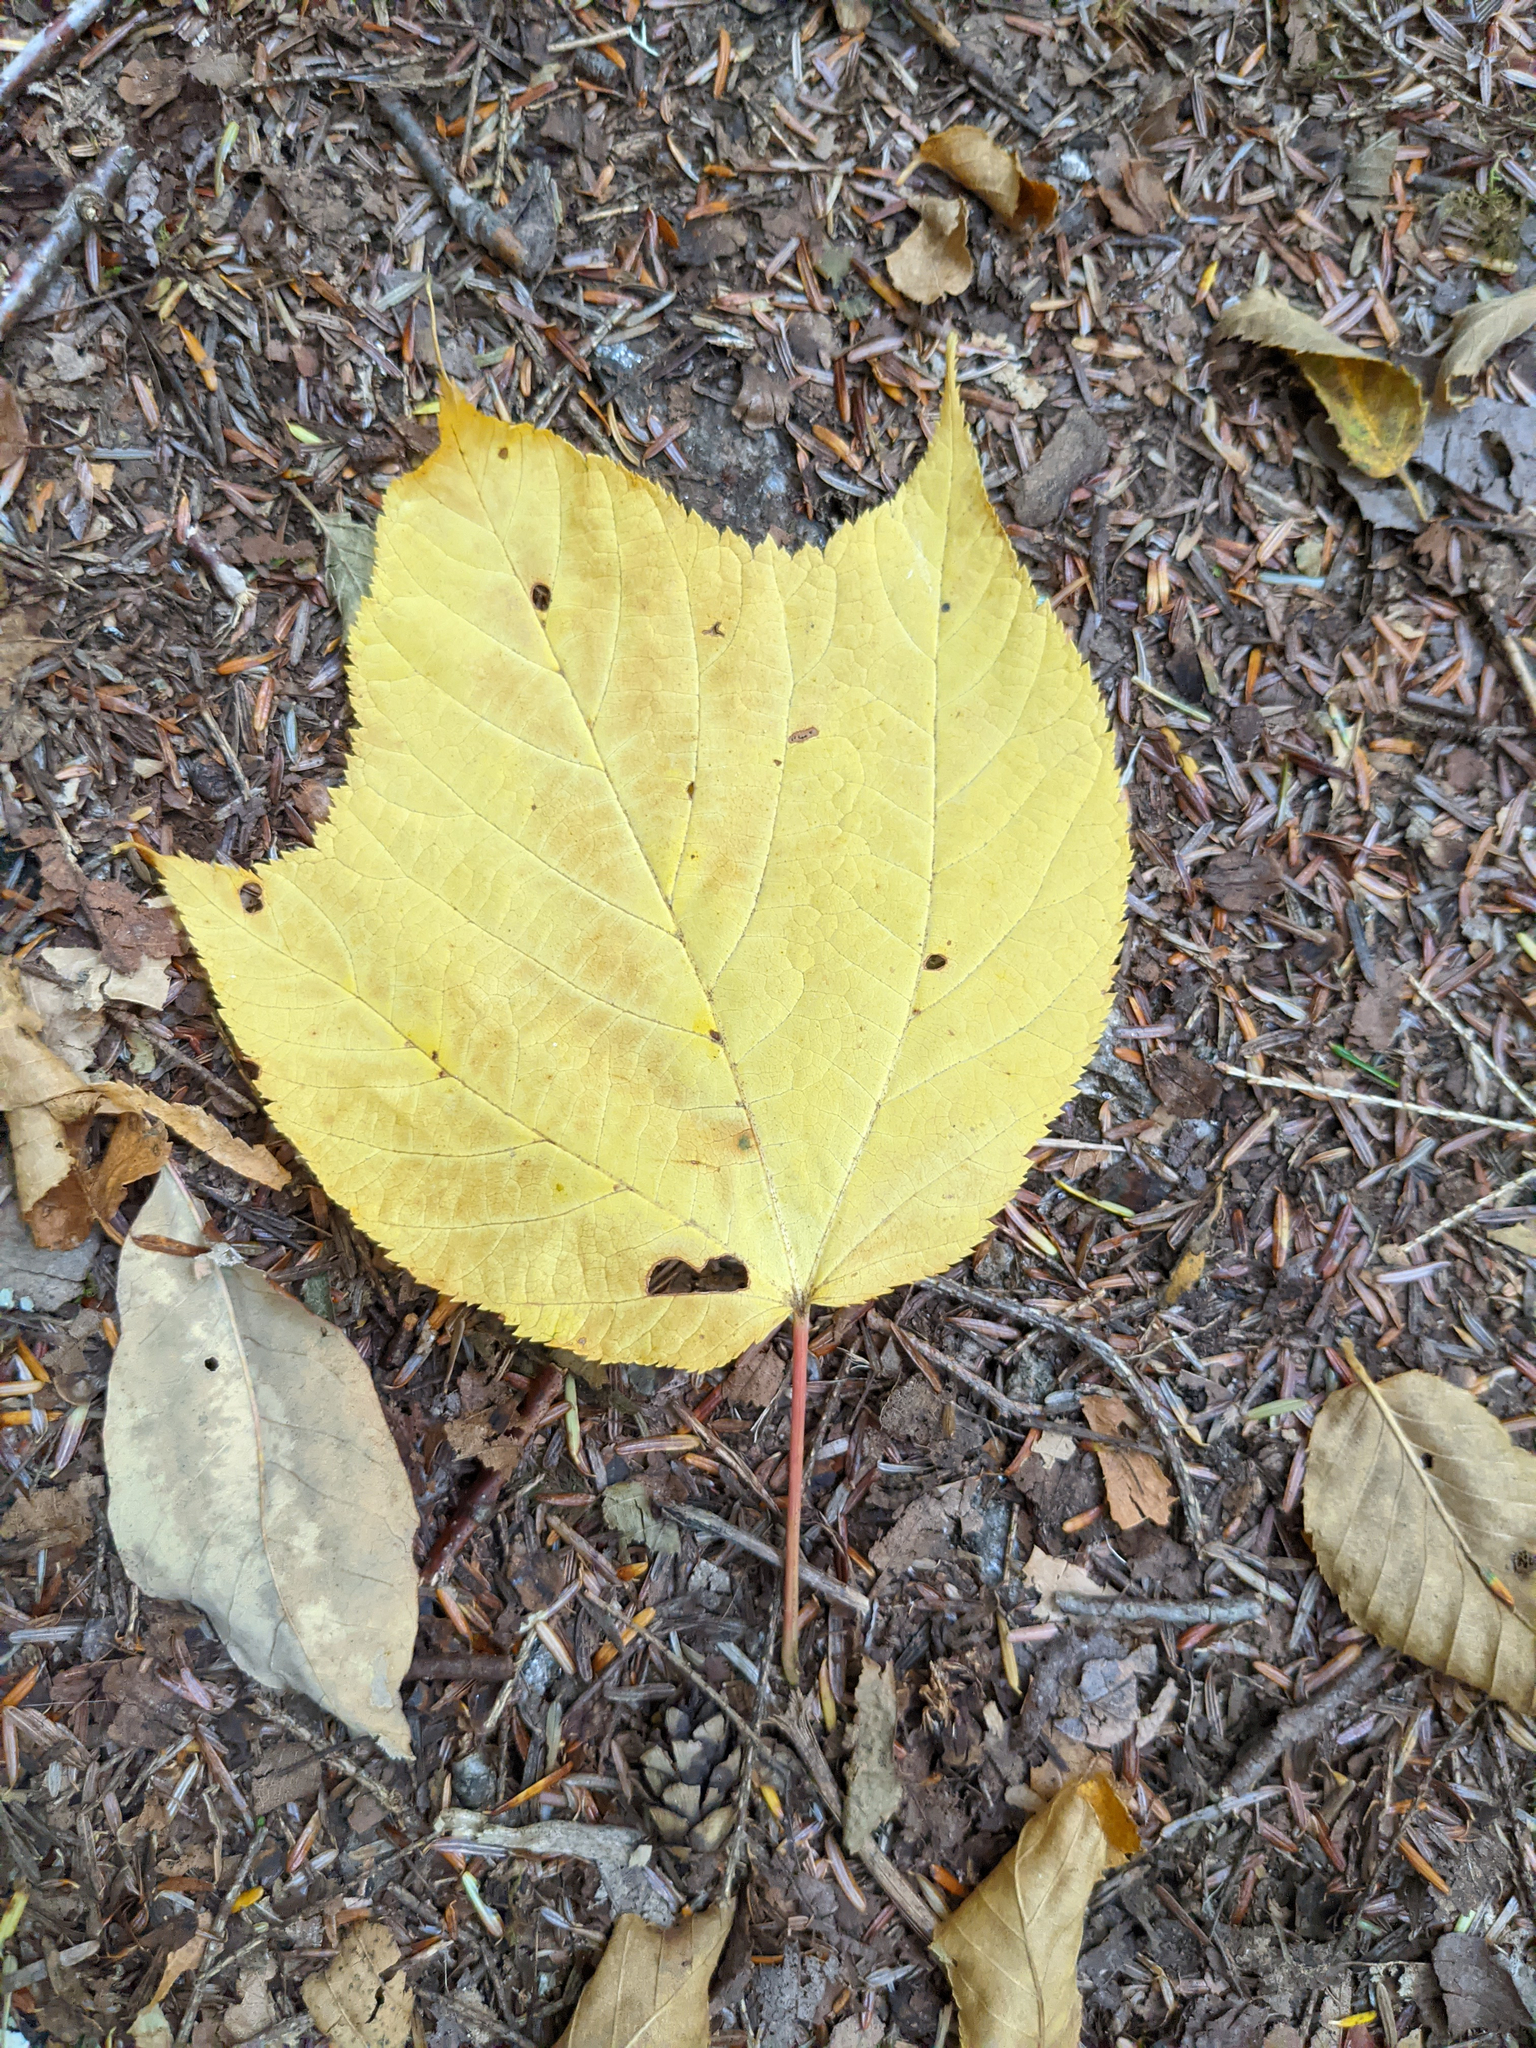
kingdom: Plantae
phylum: Tracheophyta
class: Magnoliopsida
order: Sapindales
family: Sapindaceae
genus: Acer
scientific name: Acer pensylvanicum
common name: Moosewood
